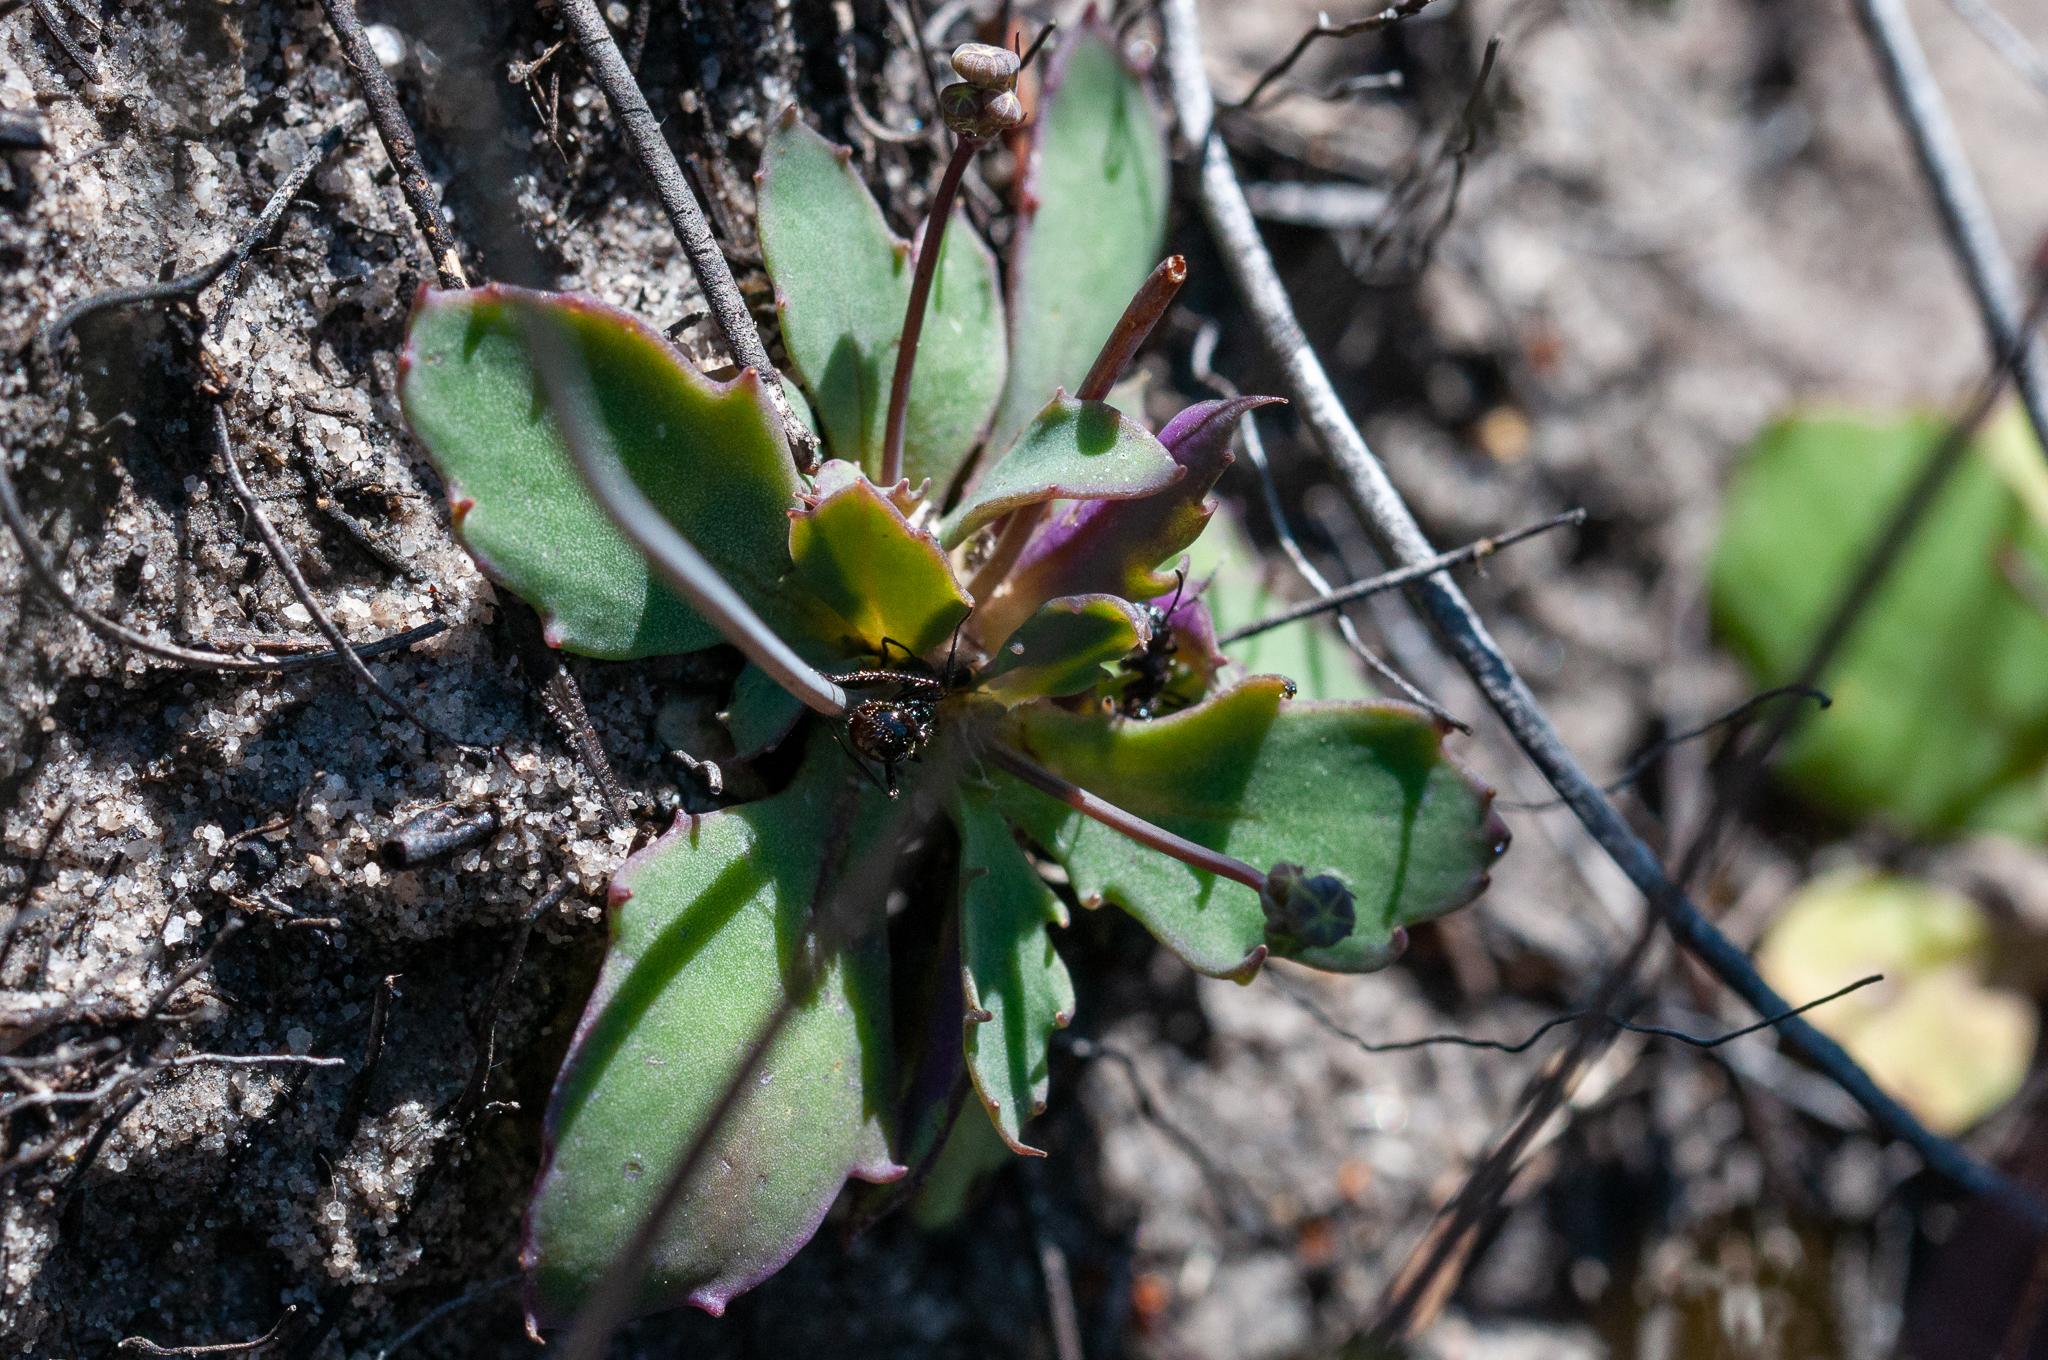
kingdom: Plantae
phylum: Tracheophyta
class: Magnoliopsida
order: Asterales
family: Asteraceae
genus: Gymnodiscus
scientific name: Gymnodiscus capillaris
